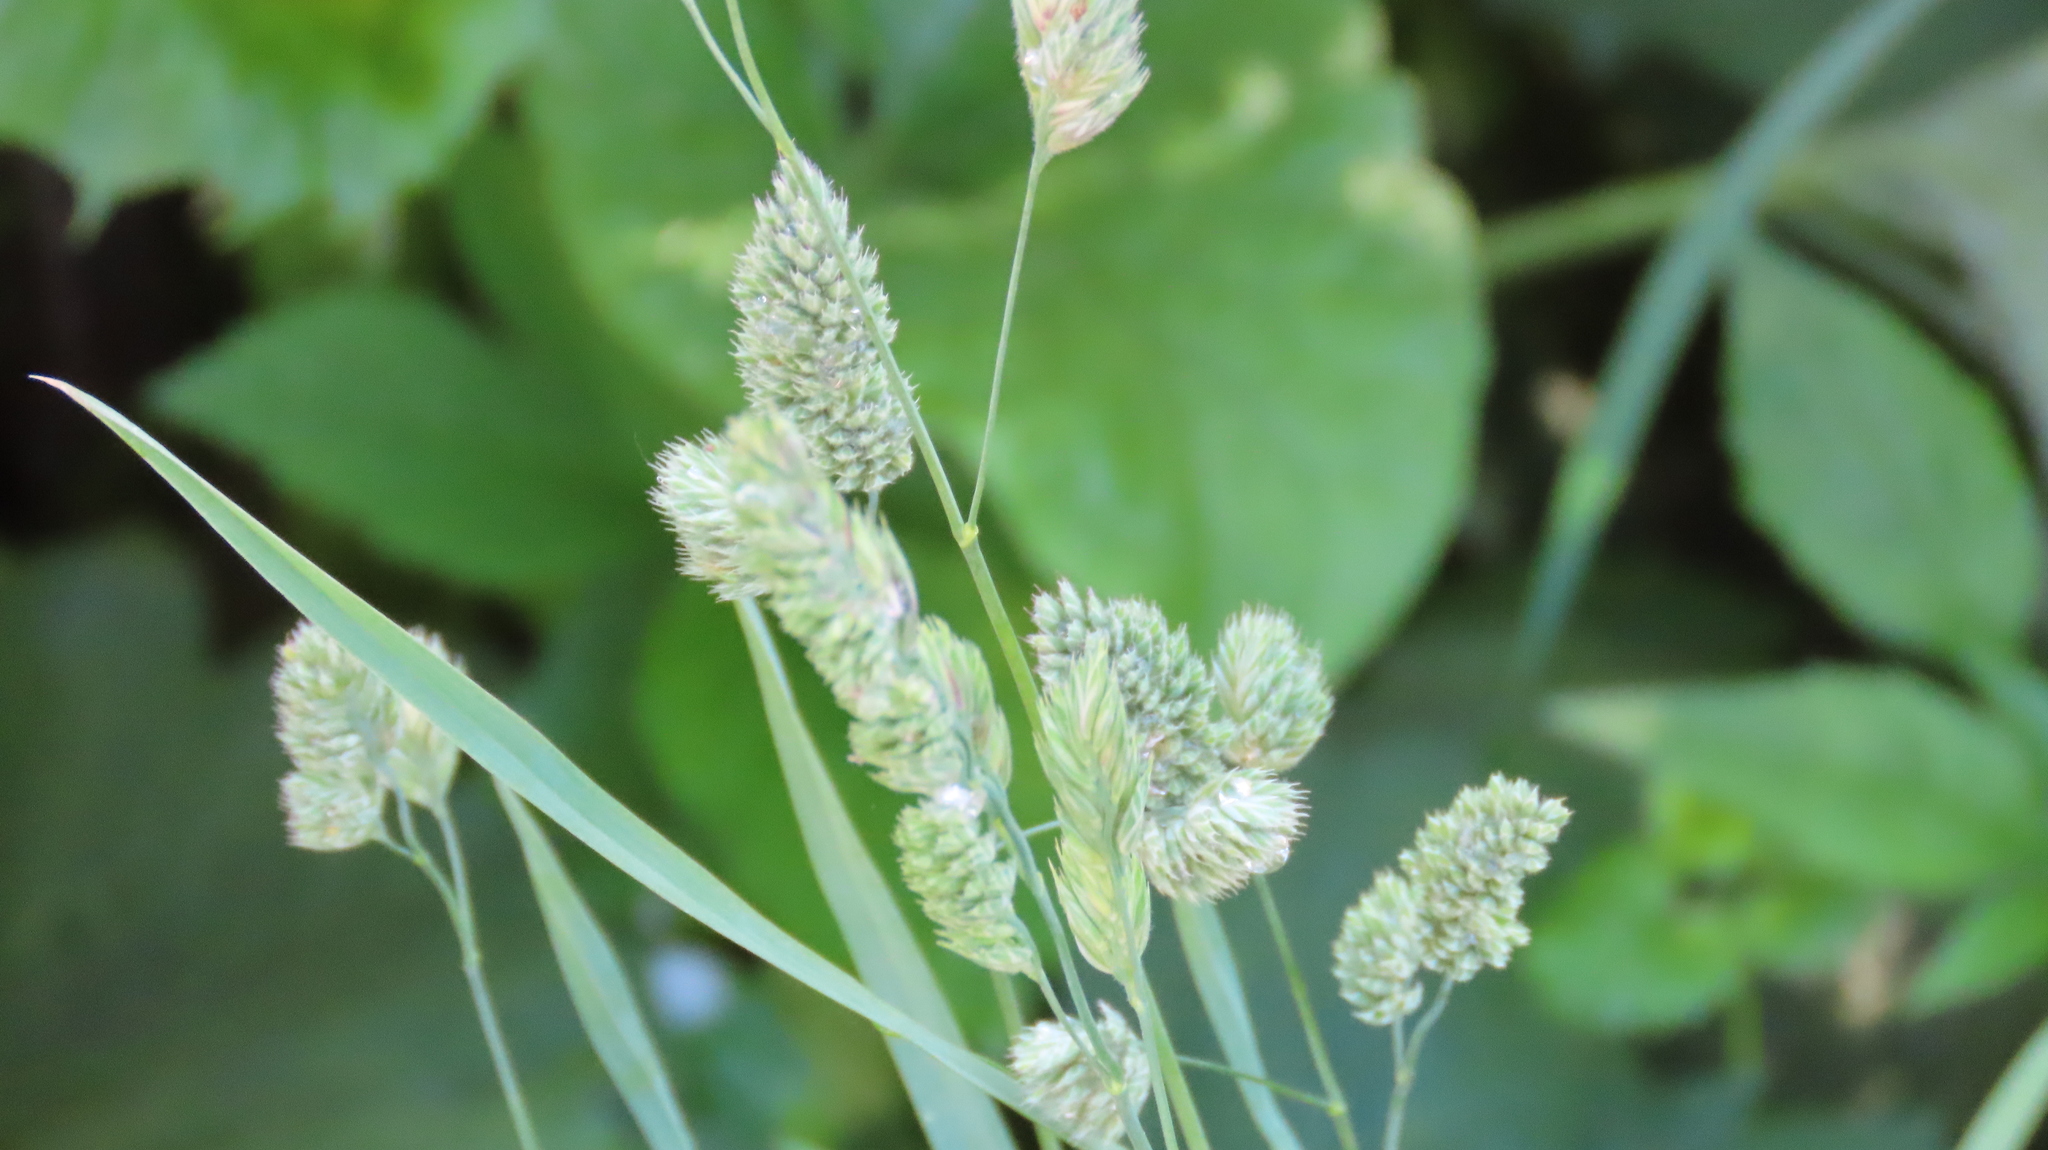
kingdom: Plantae
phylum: Tracheophyta
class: Liliopsida
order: Poales
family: Poaceae
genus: Dactylis
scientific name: Dactylis glomerata
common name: Orchardgrass
